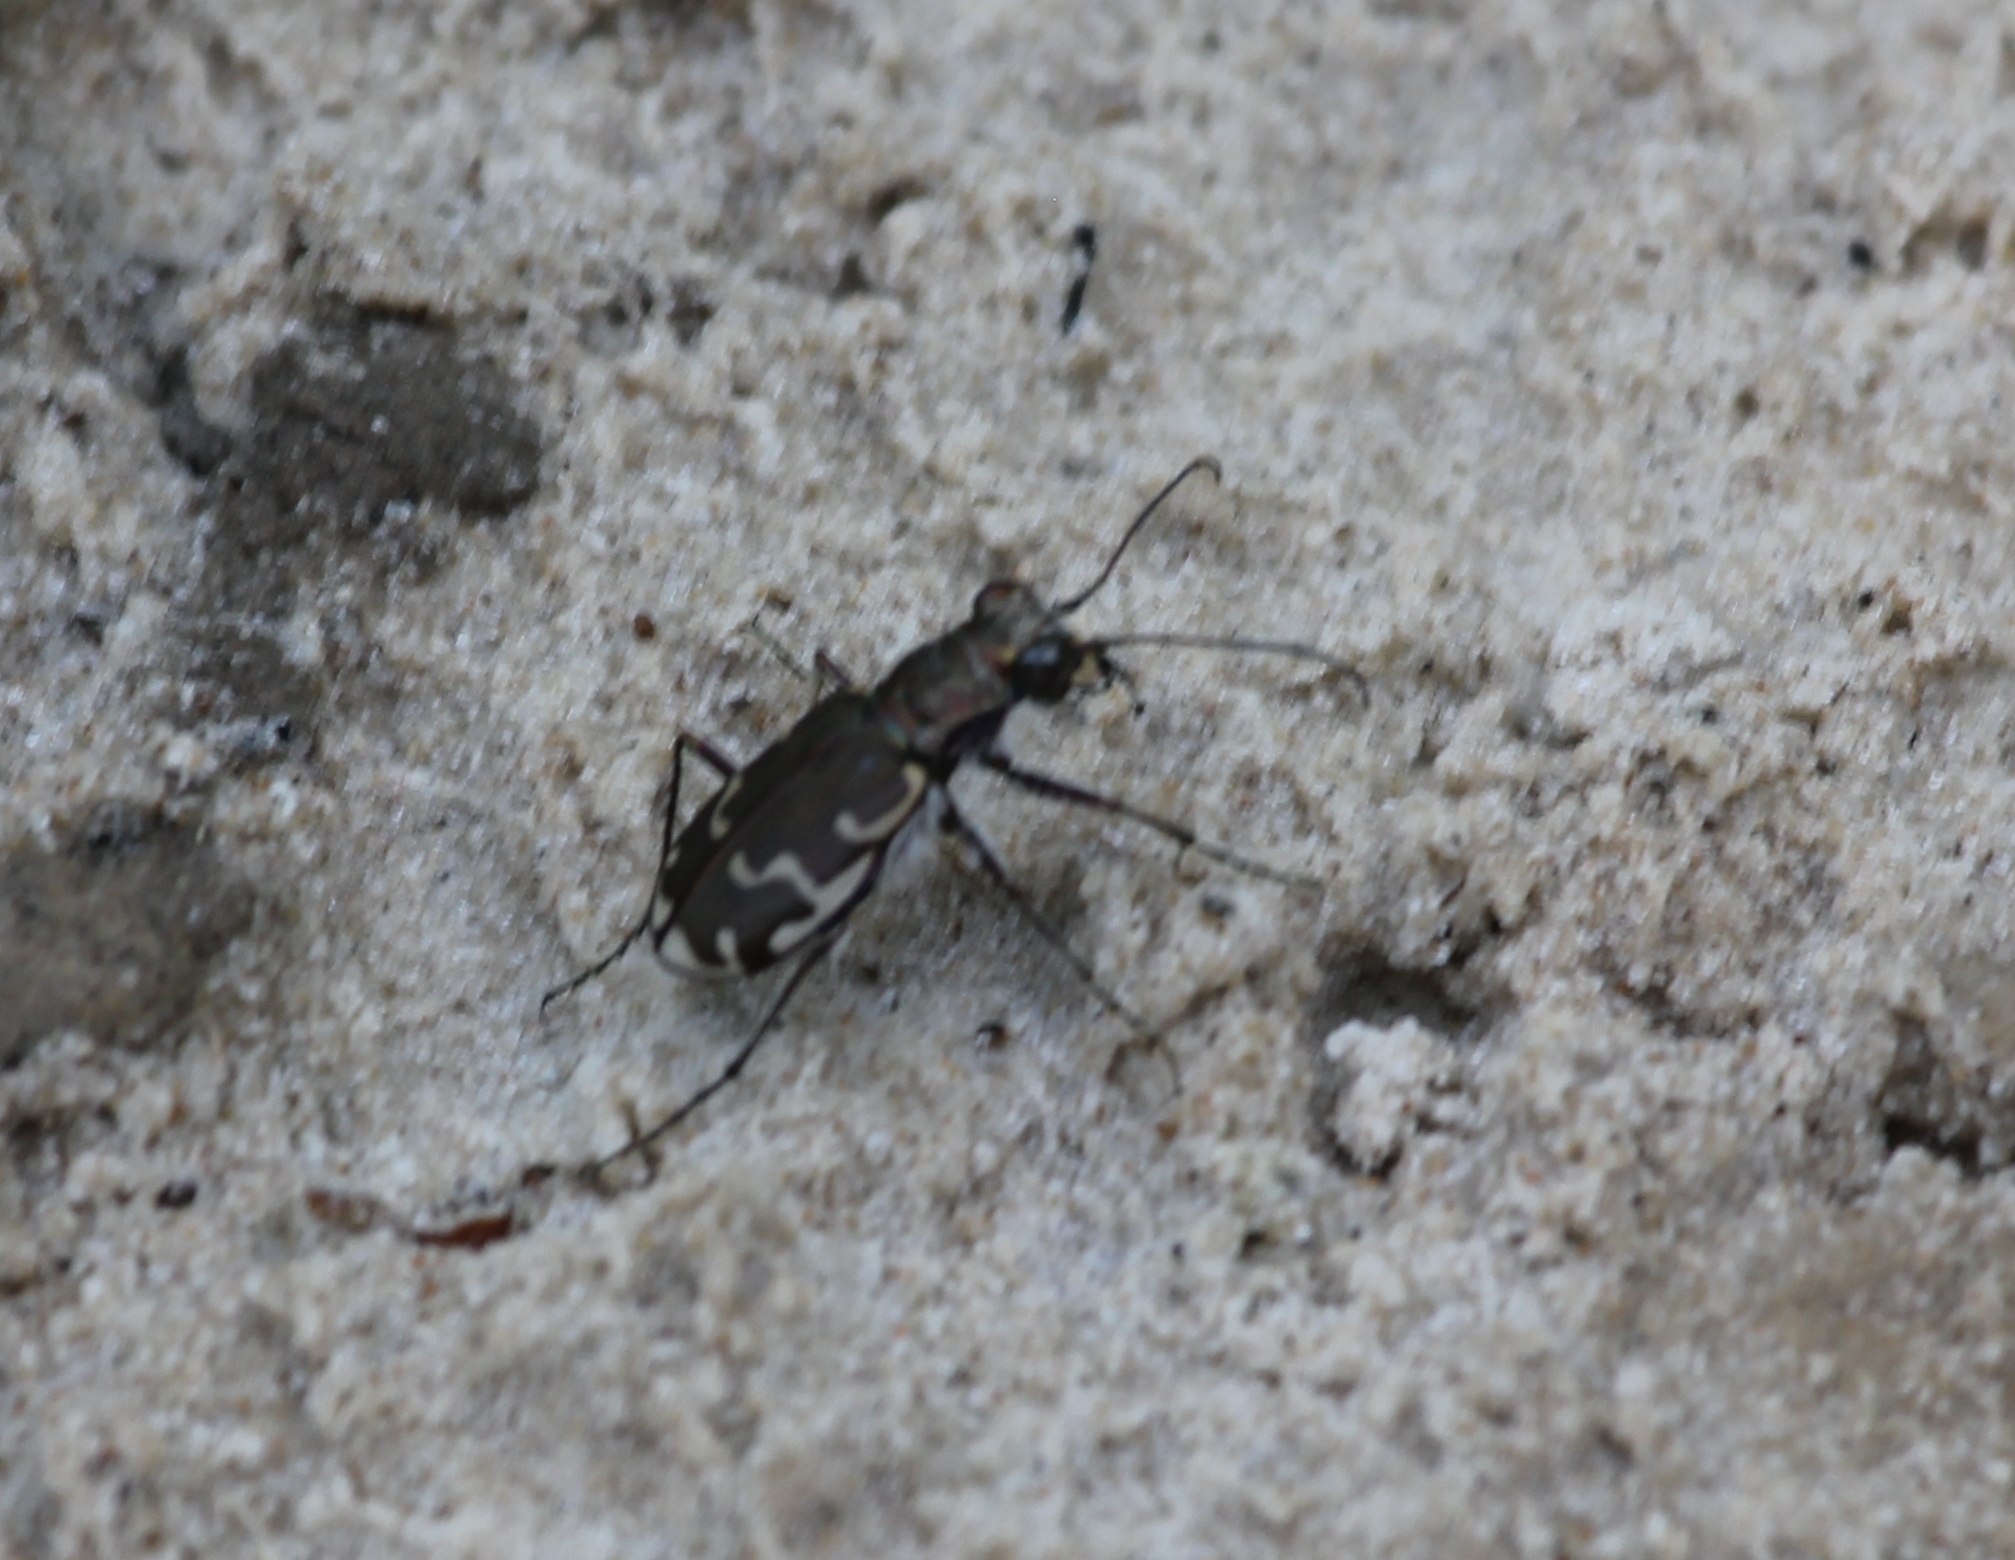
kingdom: Animalia
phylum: Arthropoda
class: Insecta
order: Coleoptera
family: Carabidae
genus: Cicindela
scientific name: Cicindela repanda
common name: Bronzed tiger beetle
